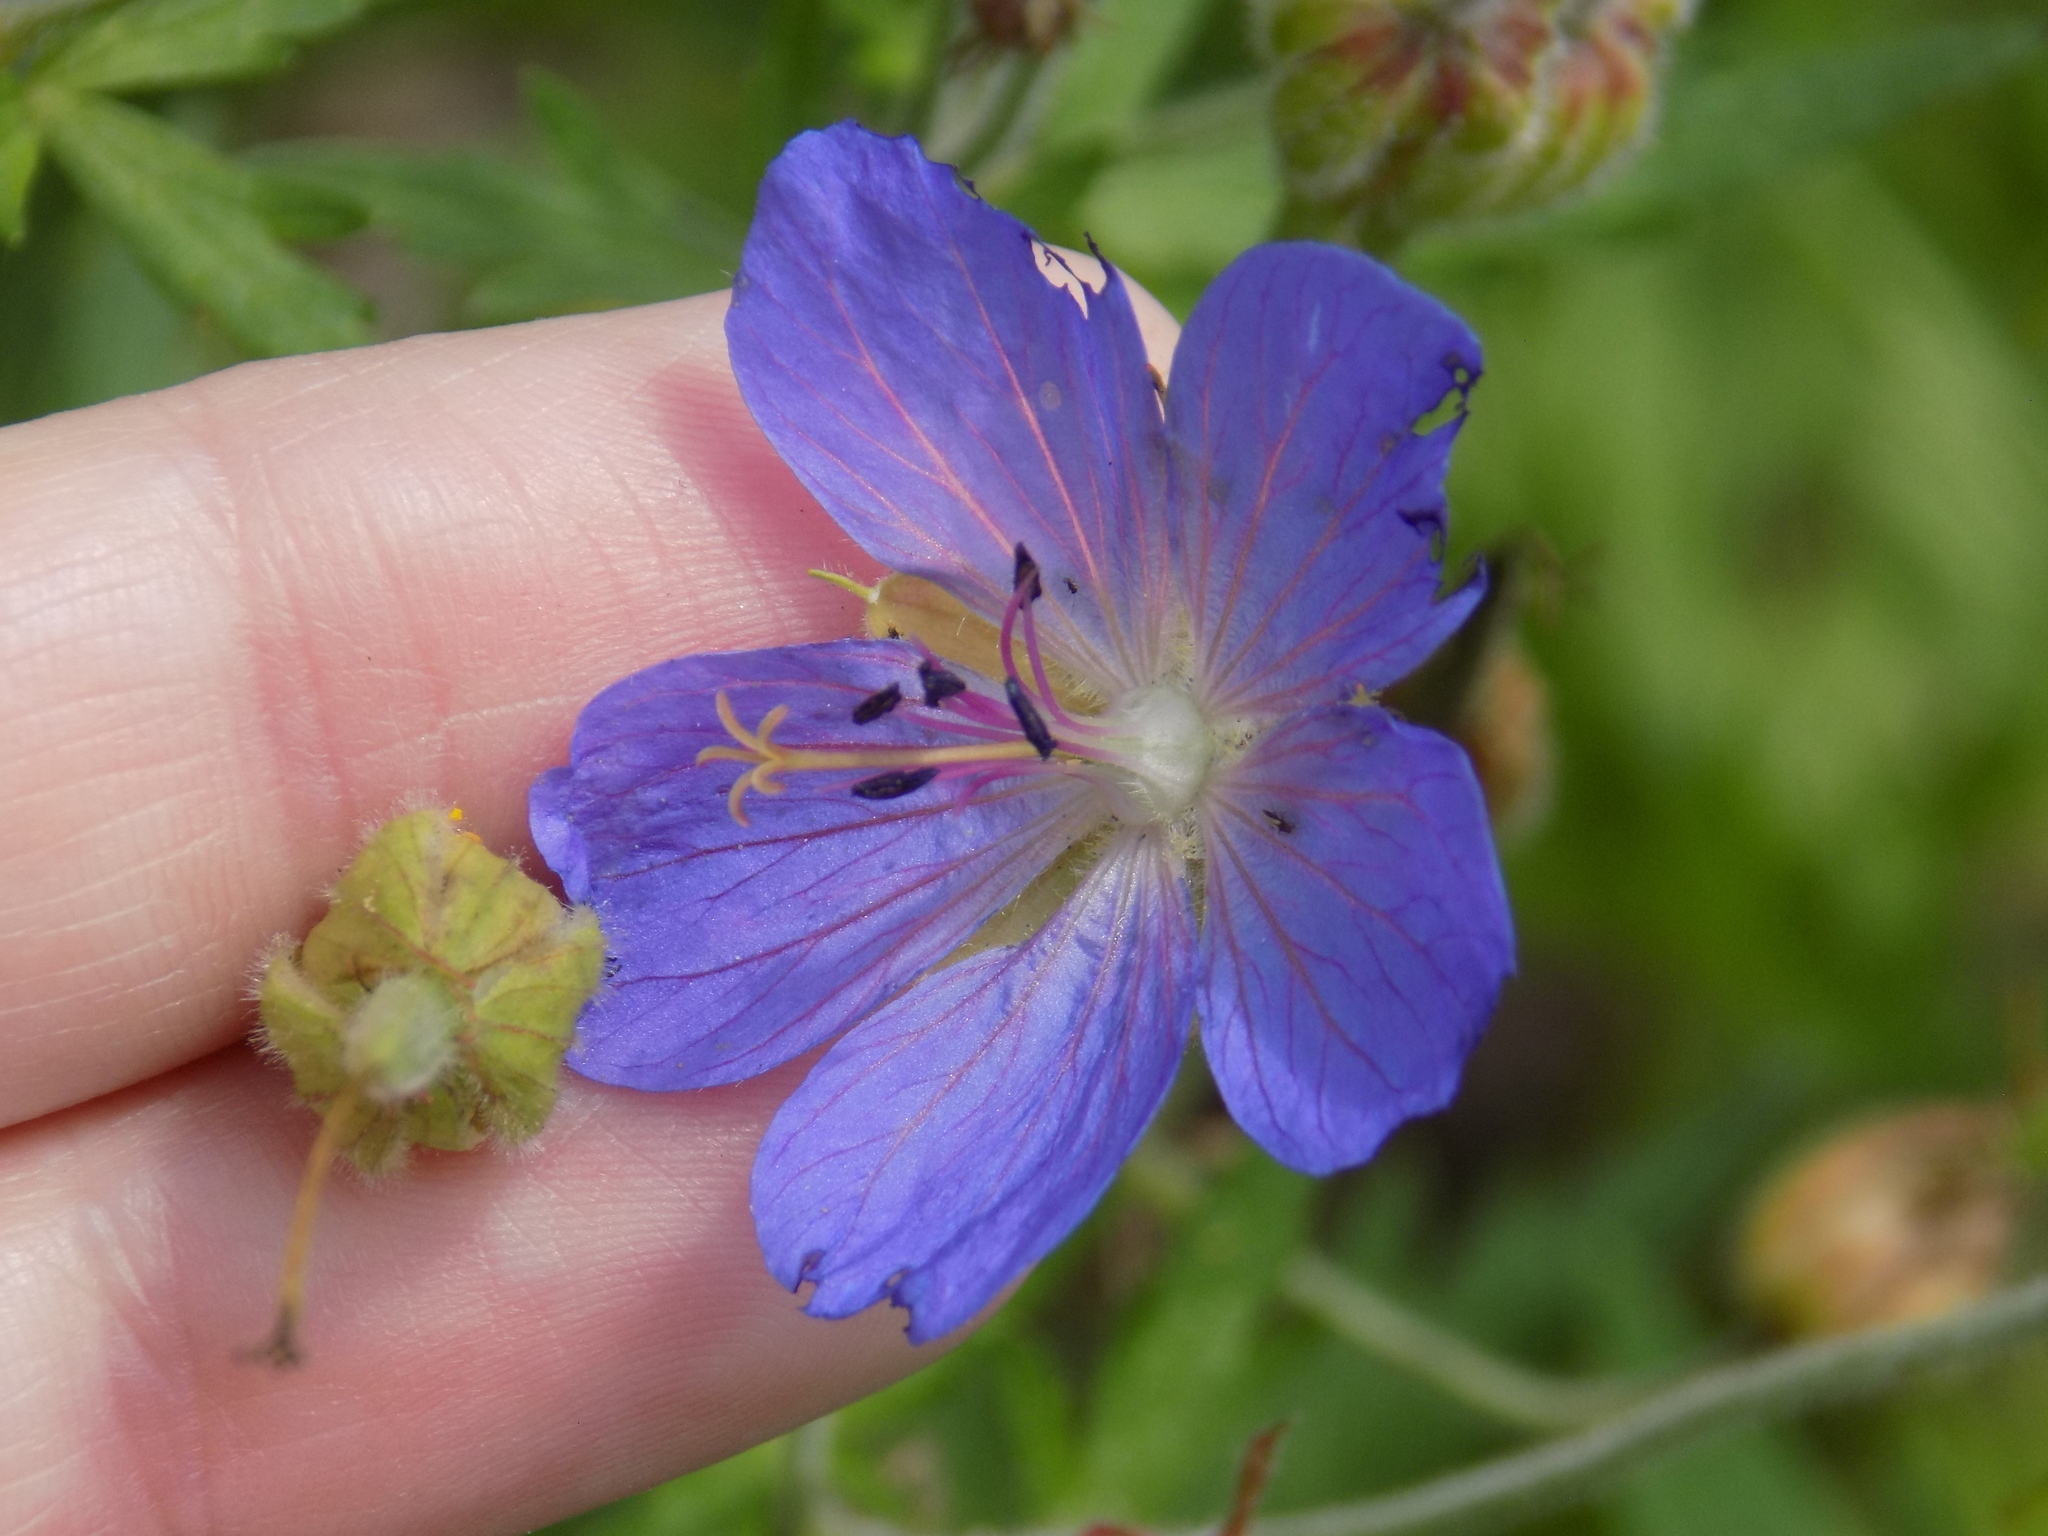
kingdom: Plantae
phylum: Tracheophyta
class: Magnoliopsida
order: Geraniales
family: Geraniaceae
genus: Geranium
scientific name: Geranium pratense
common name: Meadow crane's-bill
